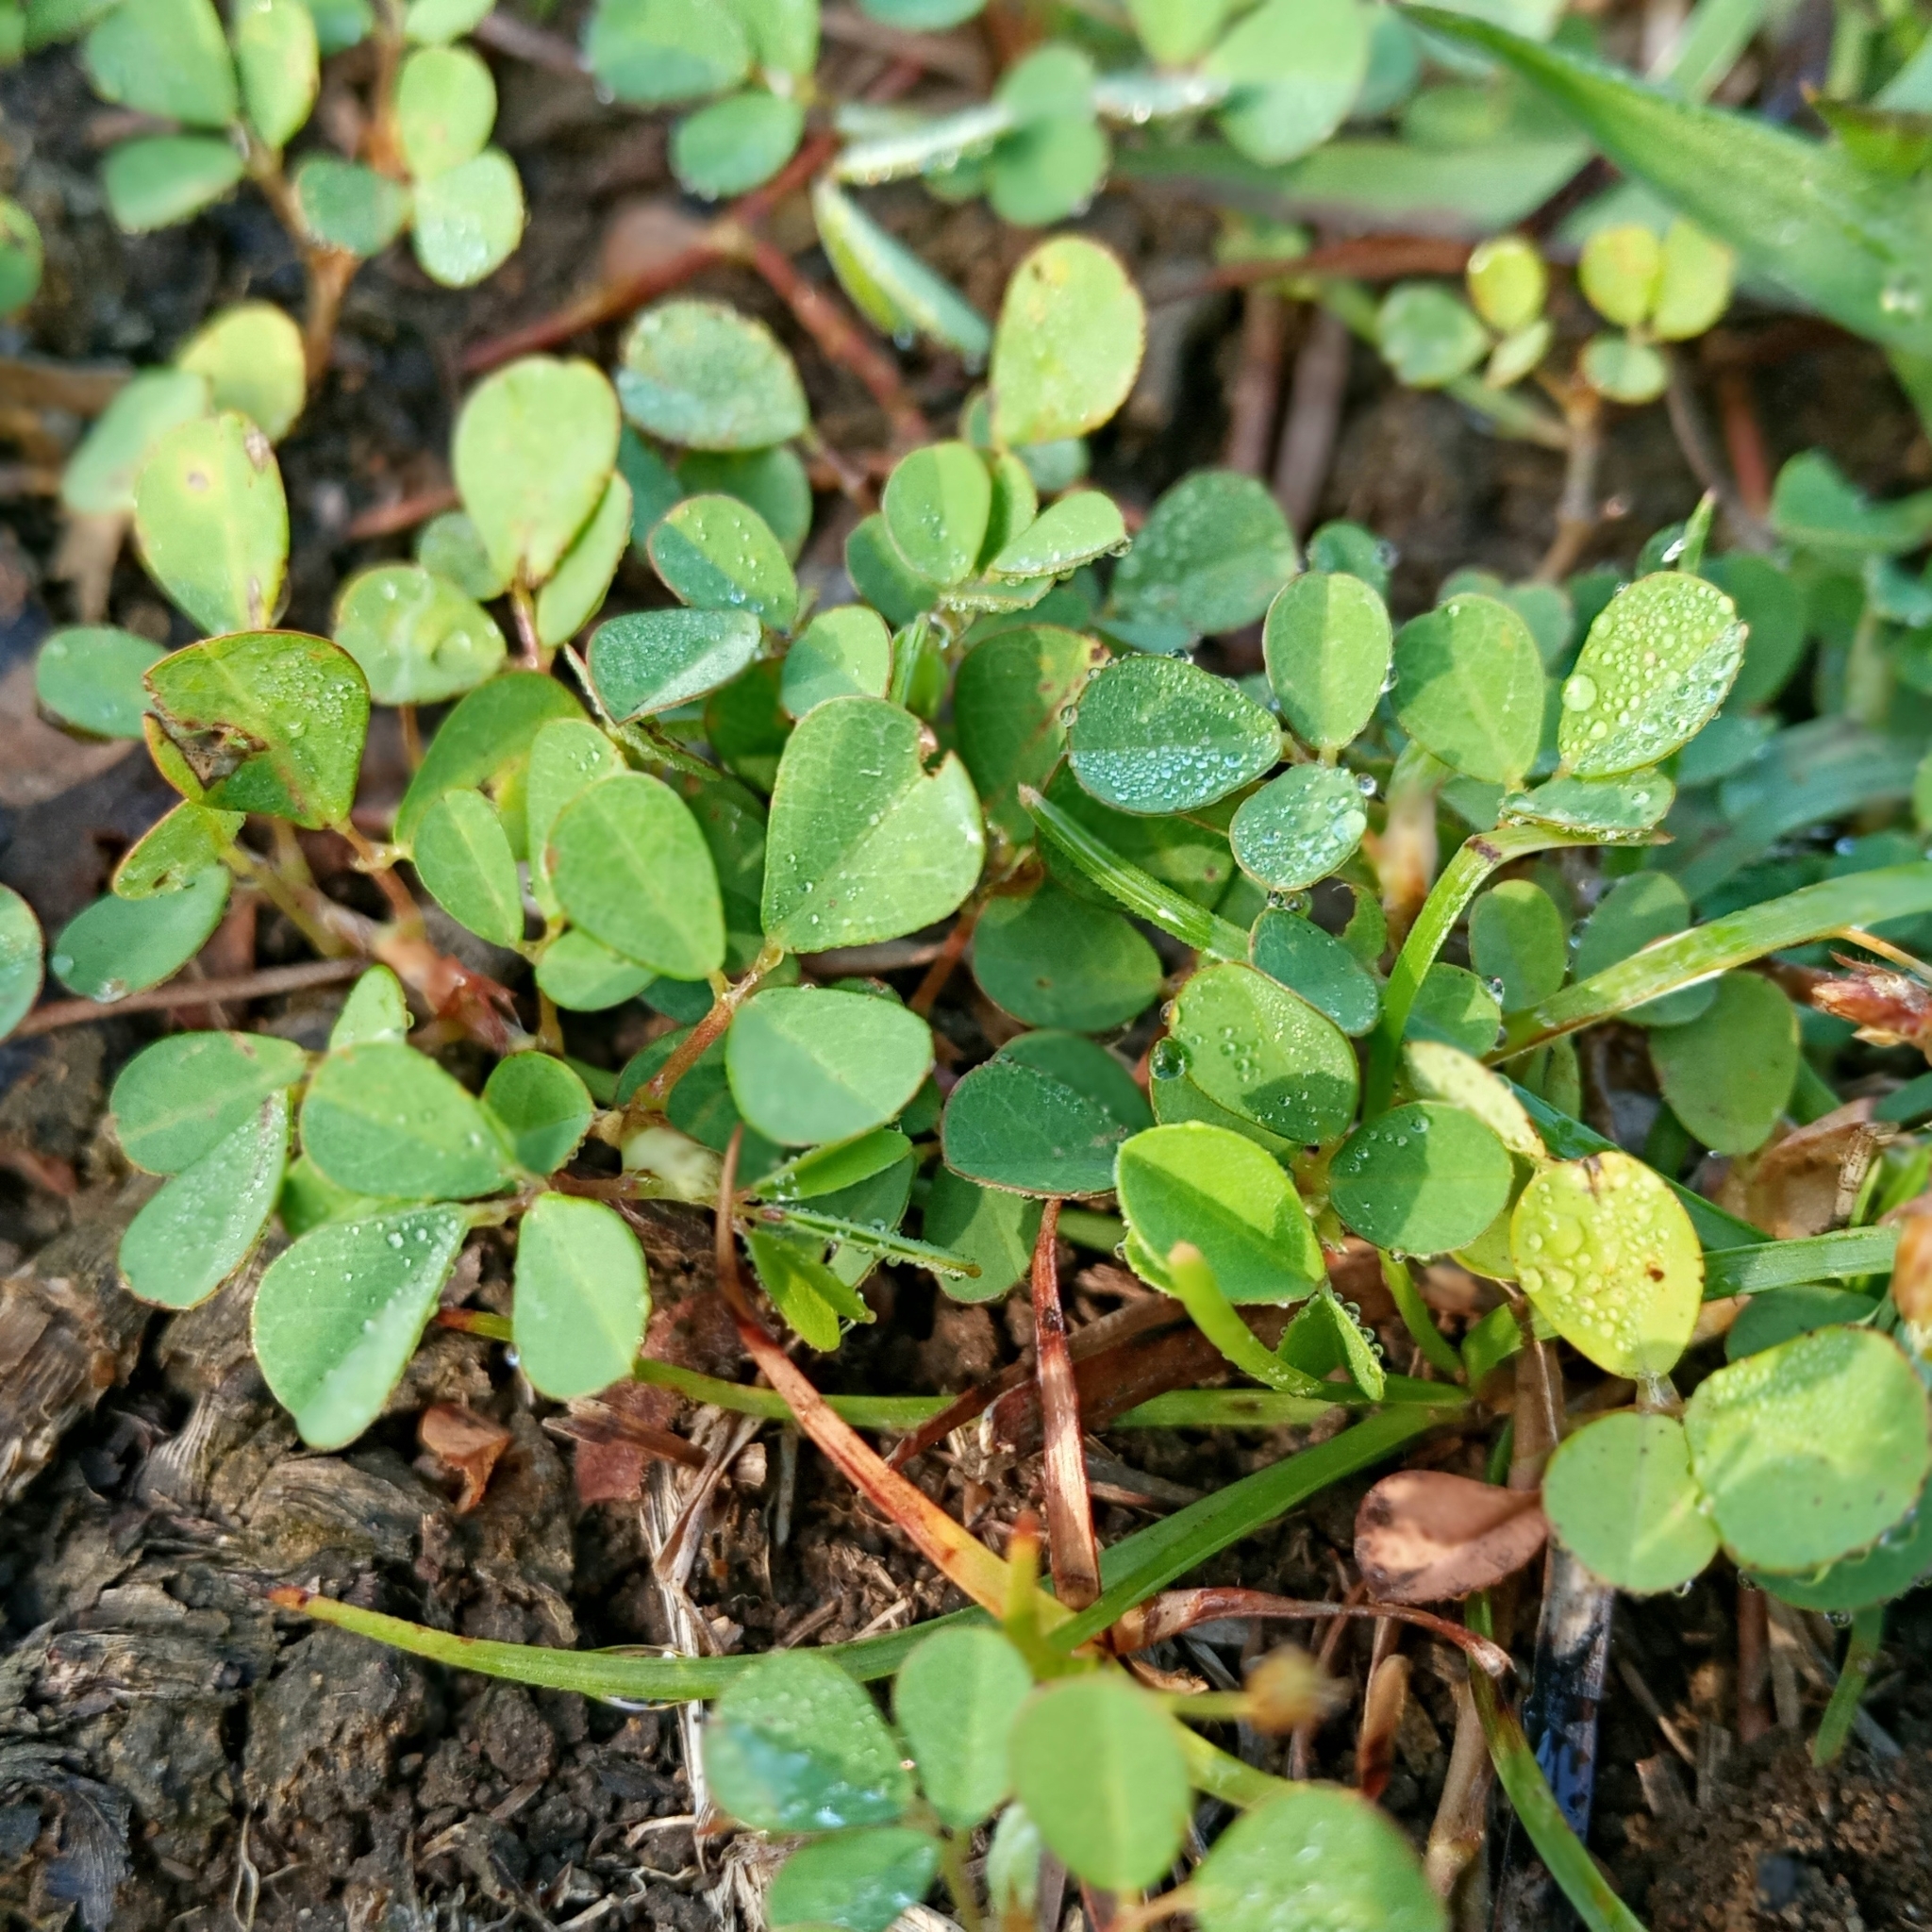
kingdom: Plantae
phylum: Tracheophyta
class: Magnoliopsida
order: Fabales
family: Fabaceae
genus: Grona
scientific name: Grona triflora
